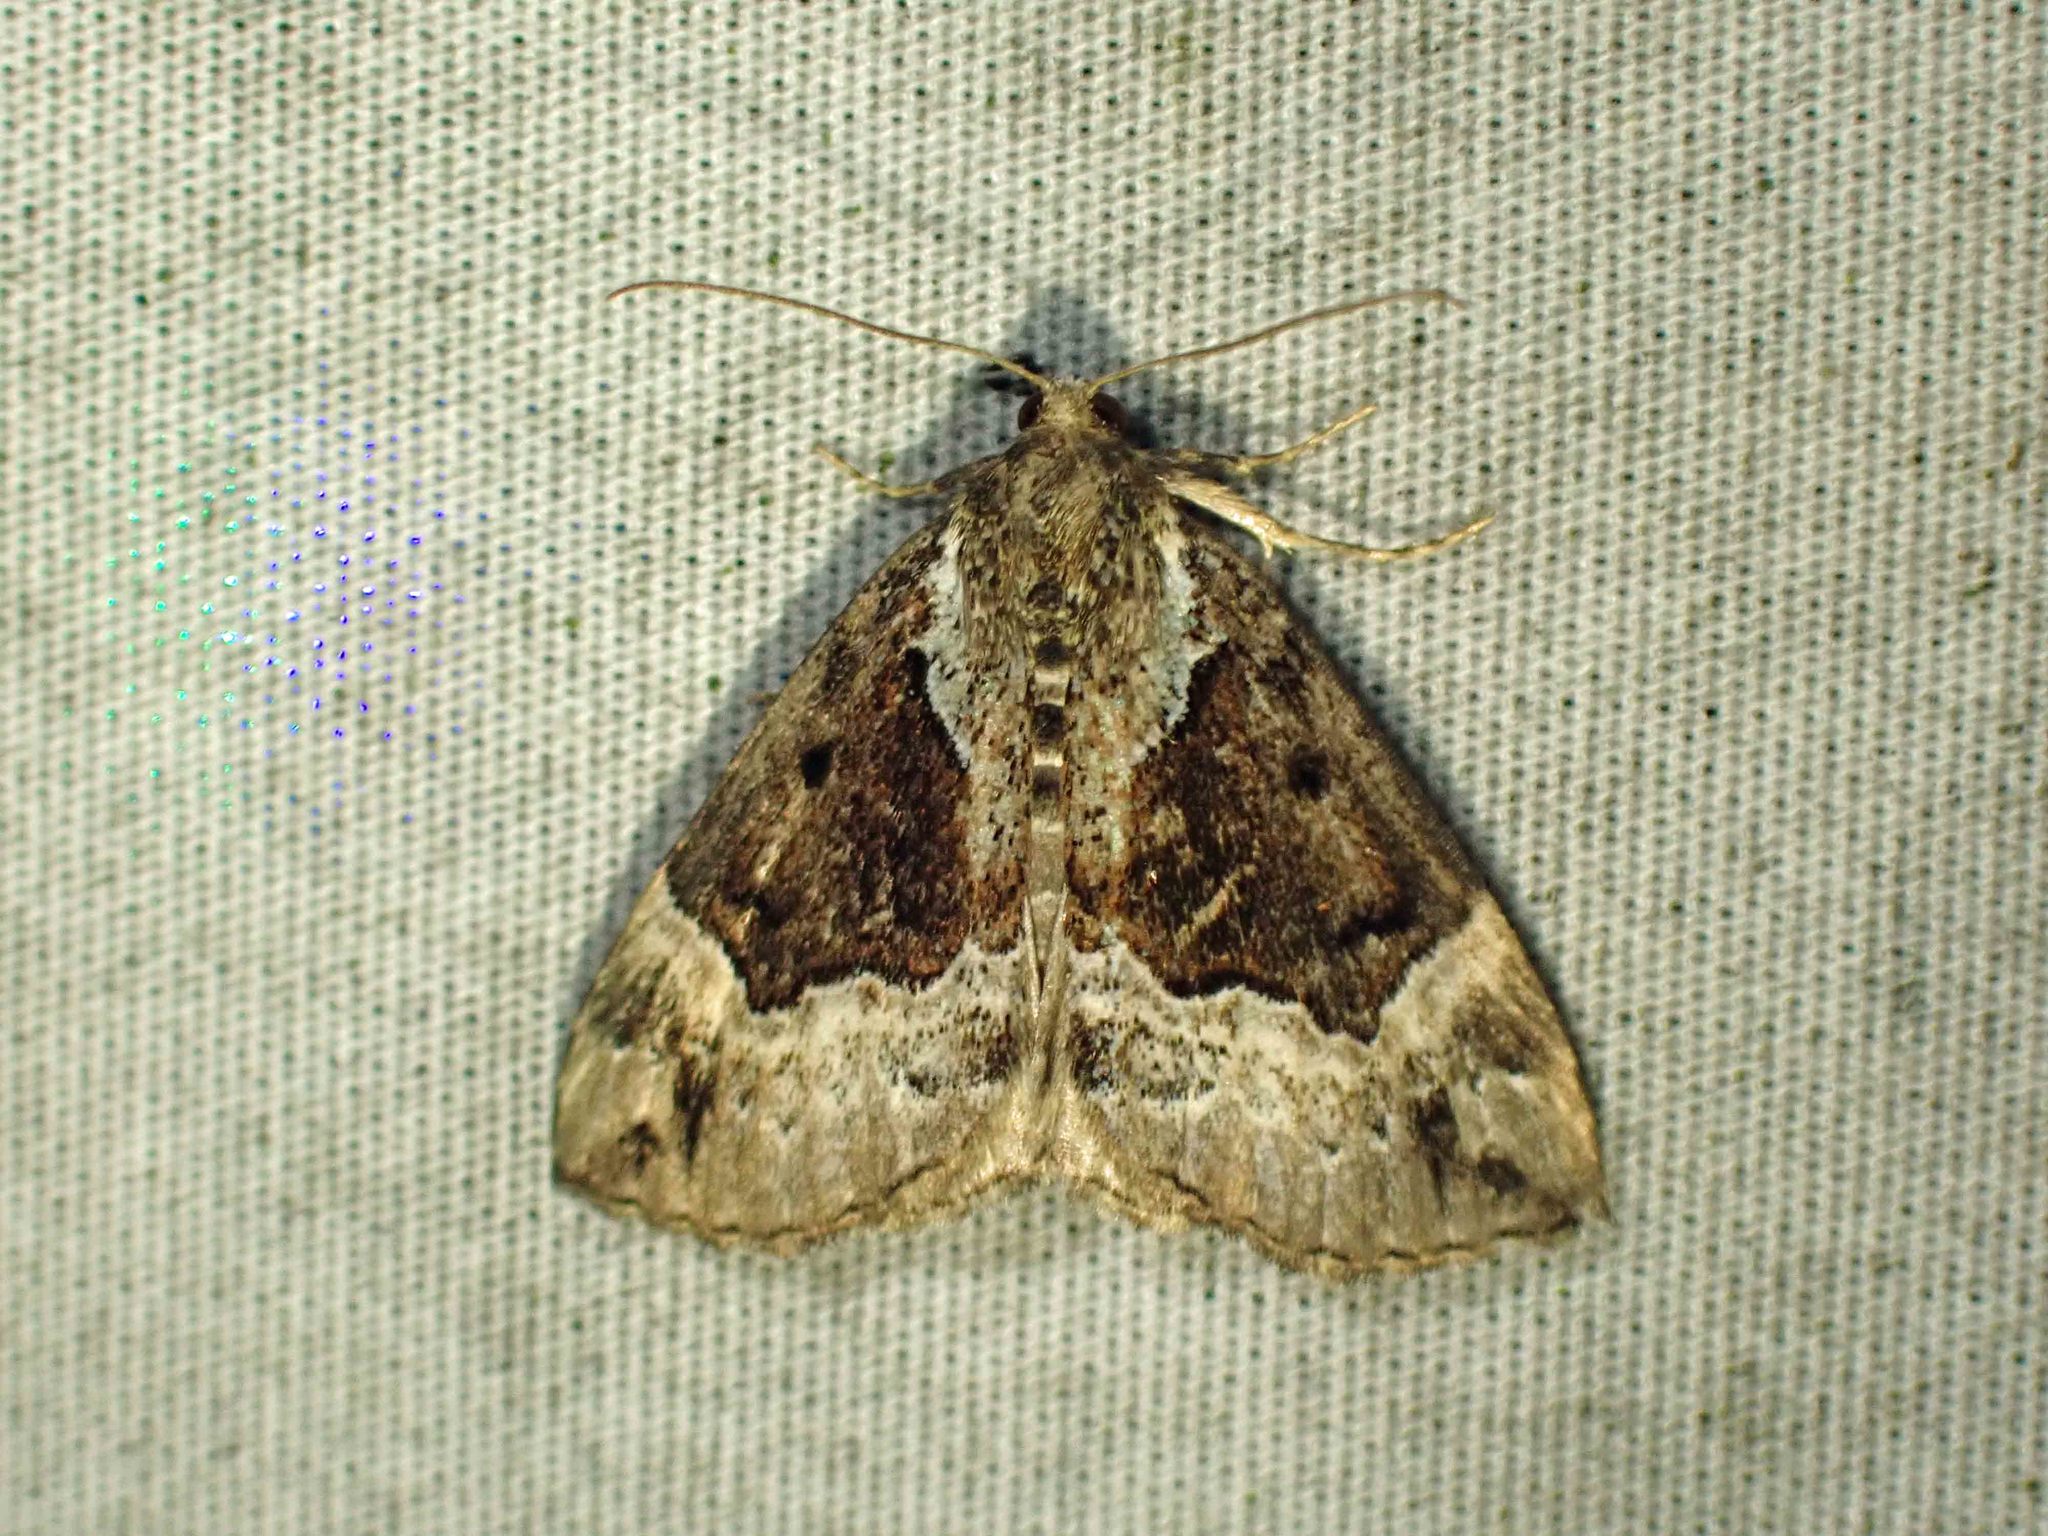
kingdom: Animalia
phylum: Arthropoda
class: Insecta
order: Lepidoptera
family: Erebidae
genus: Hypena
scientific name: Hypena palparia
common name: Mottled bomolocha moth
